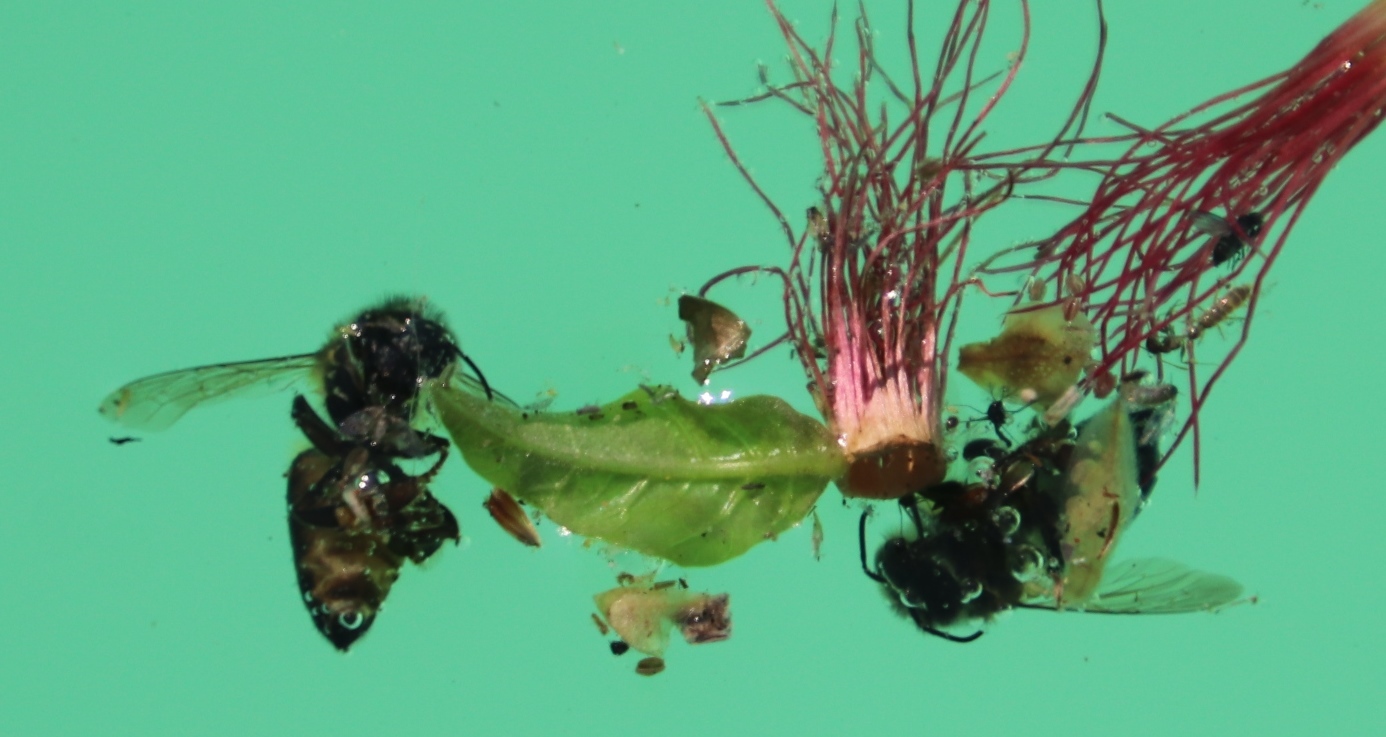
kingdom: Animalia
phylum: Arthropoda
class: Insecta
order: Hymenoptera
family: Apidae
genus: Apis
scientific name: Apis mellifera
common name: Honey bee
